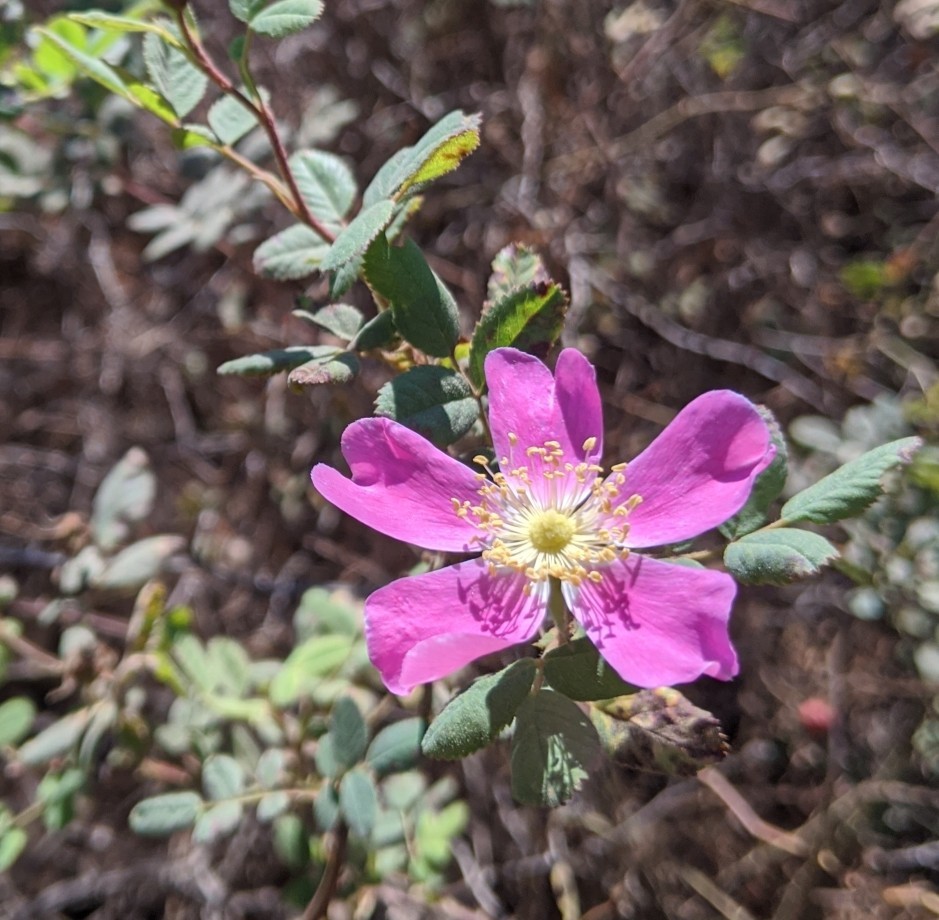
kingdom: Plantae
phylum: Tracheophyta
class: Magnoliopsida
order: Rosales
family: Rosaceae
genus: Rosa
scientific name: Rosa californica
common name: California rose
